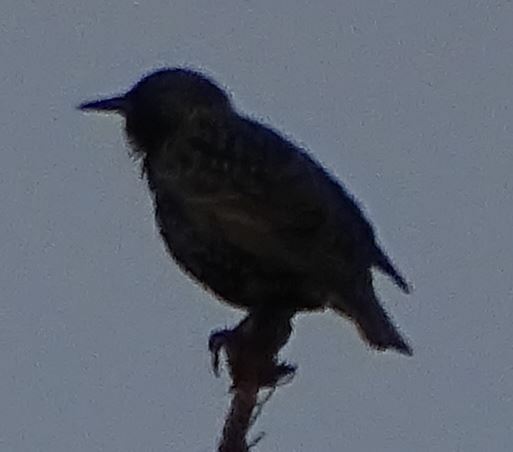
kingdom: Animalia
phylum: Chordata
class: Aves
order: Passeriformes
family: Sturnidae
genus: Sturnus
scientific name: Sturnus vulgaris
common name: Common starling
